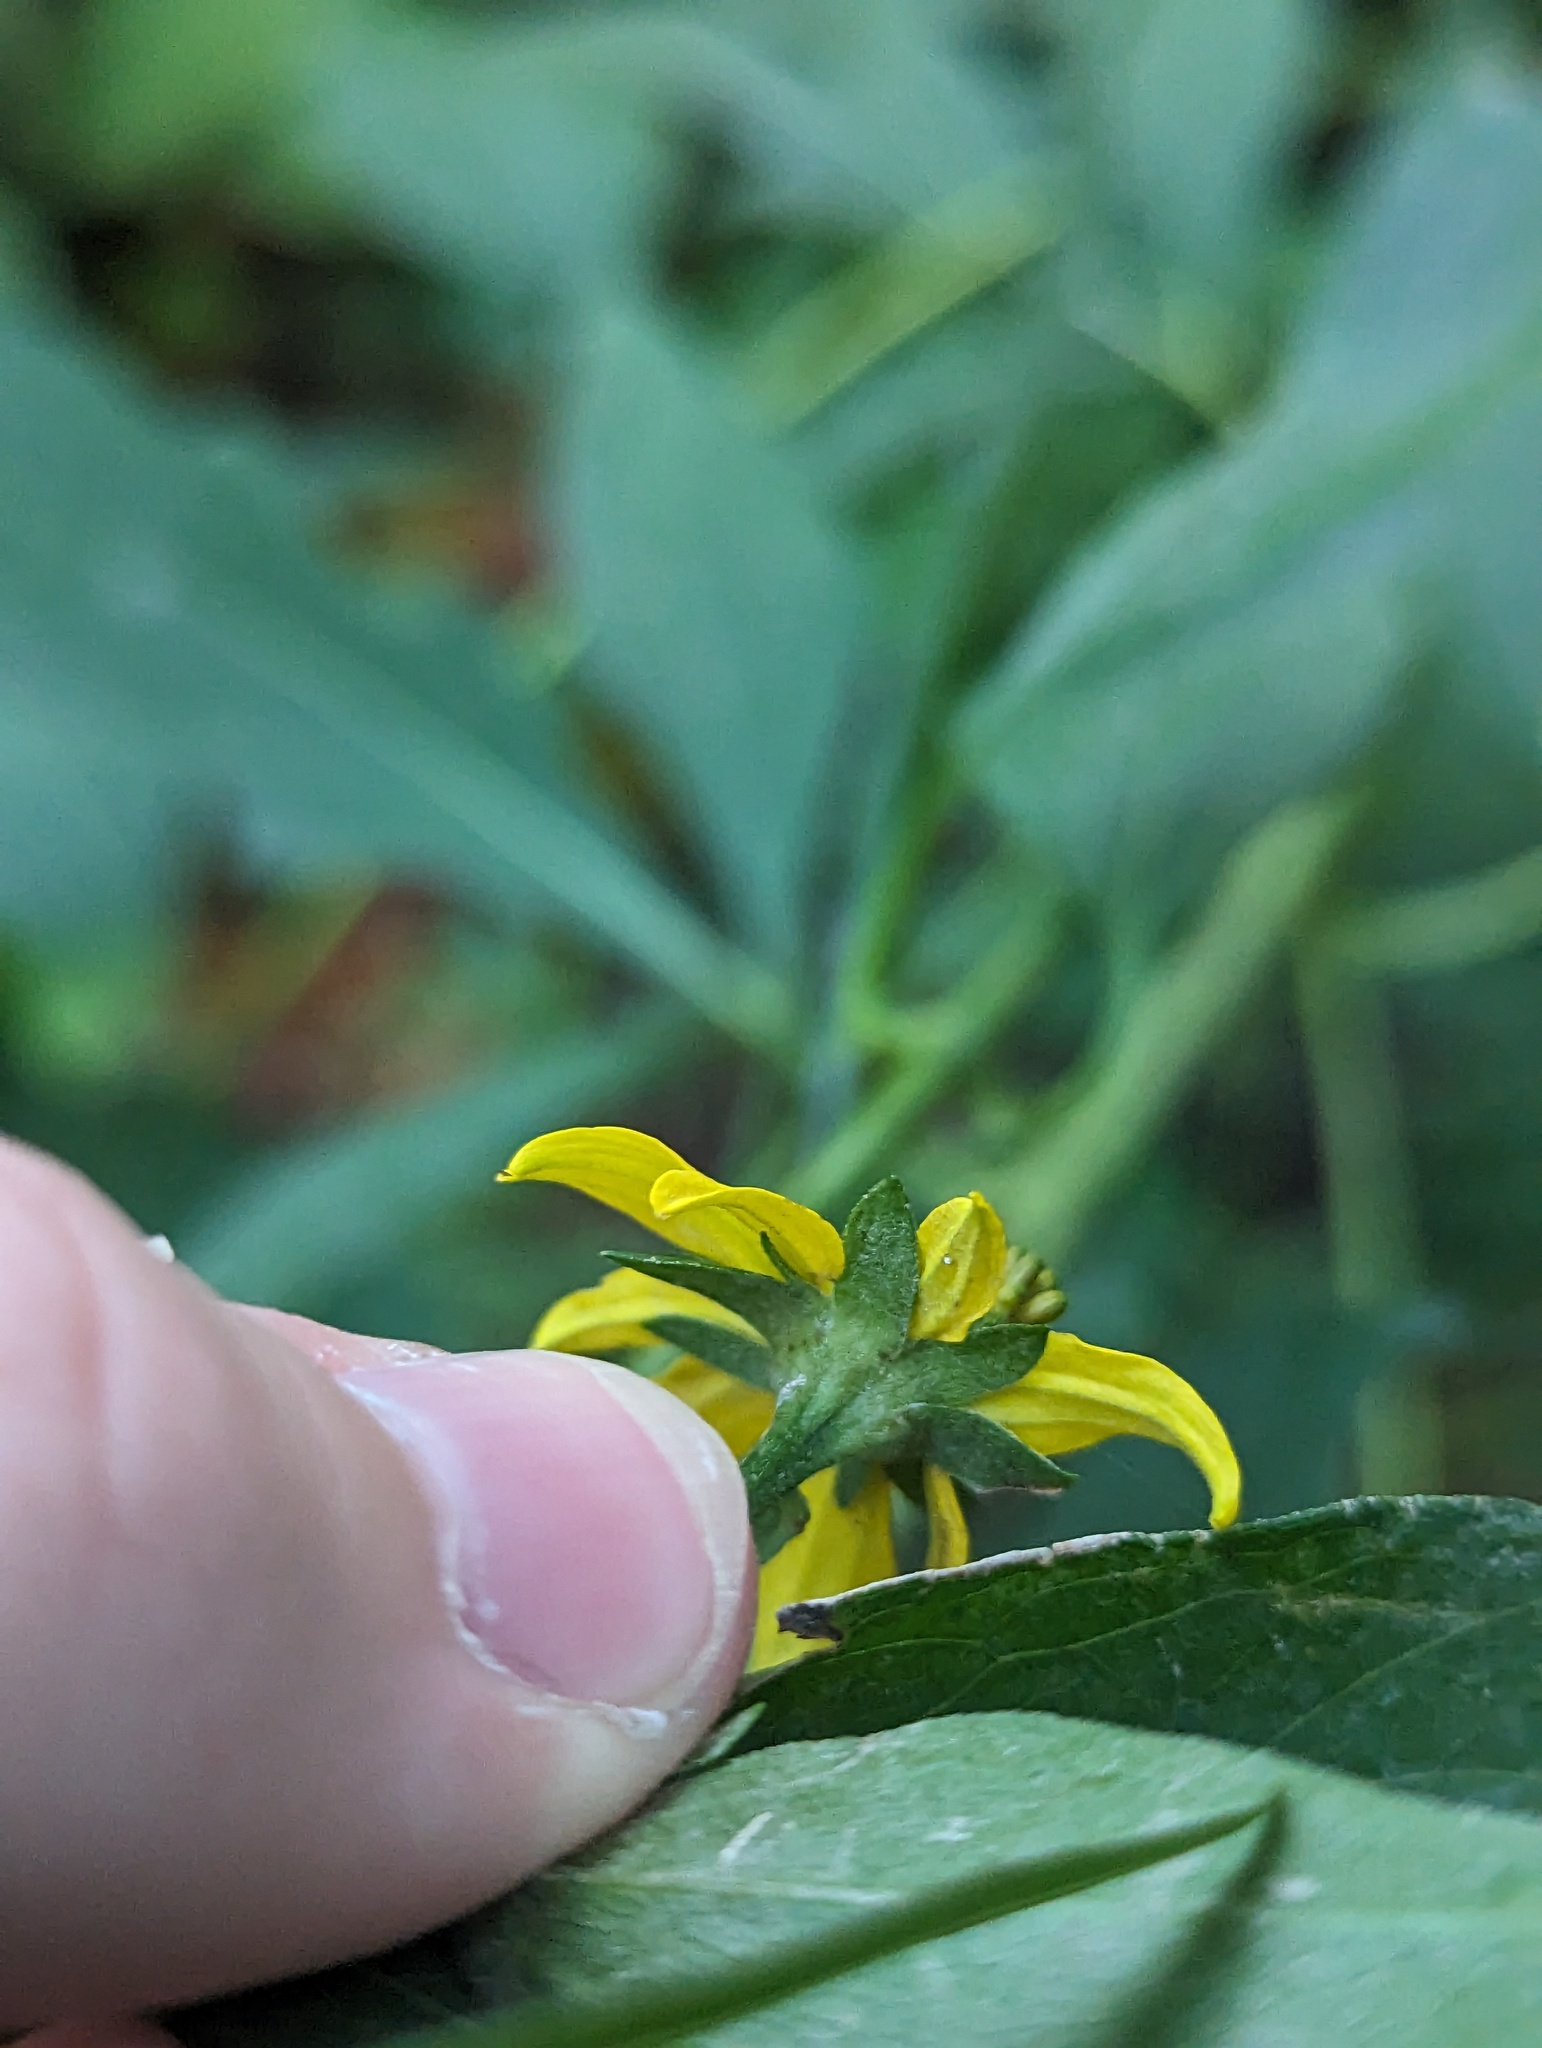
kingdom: Plantae
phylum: Tracheophyta
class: Magnoliopsida
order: Asterales
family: Asteraceae
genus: Rudbeckia
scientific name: Rudbeckia laciniata
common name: Coneflower
